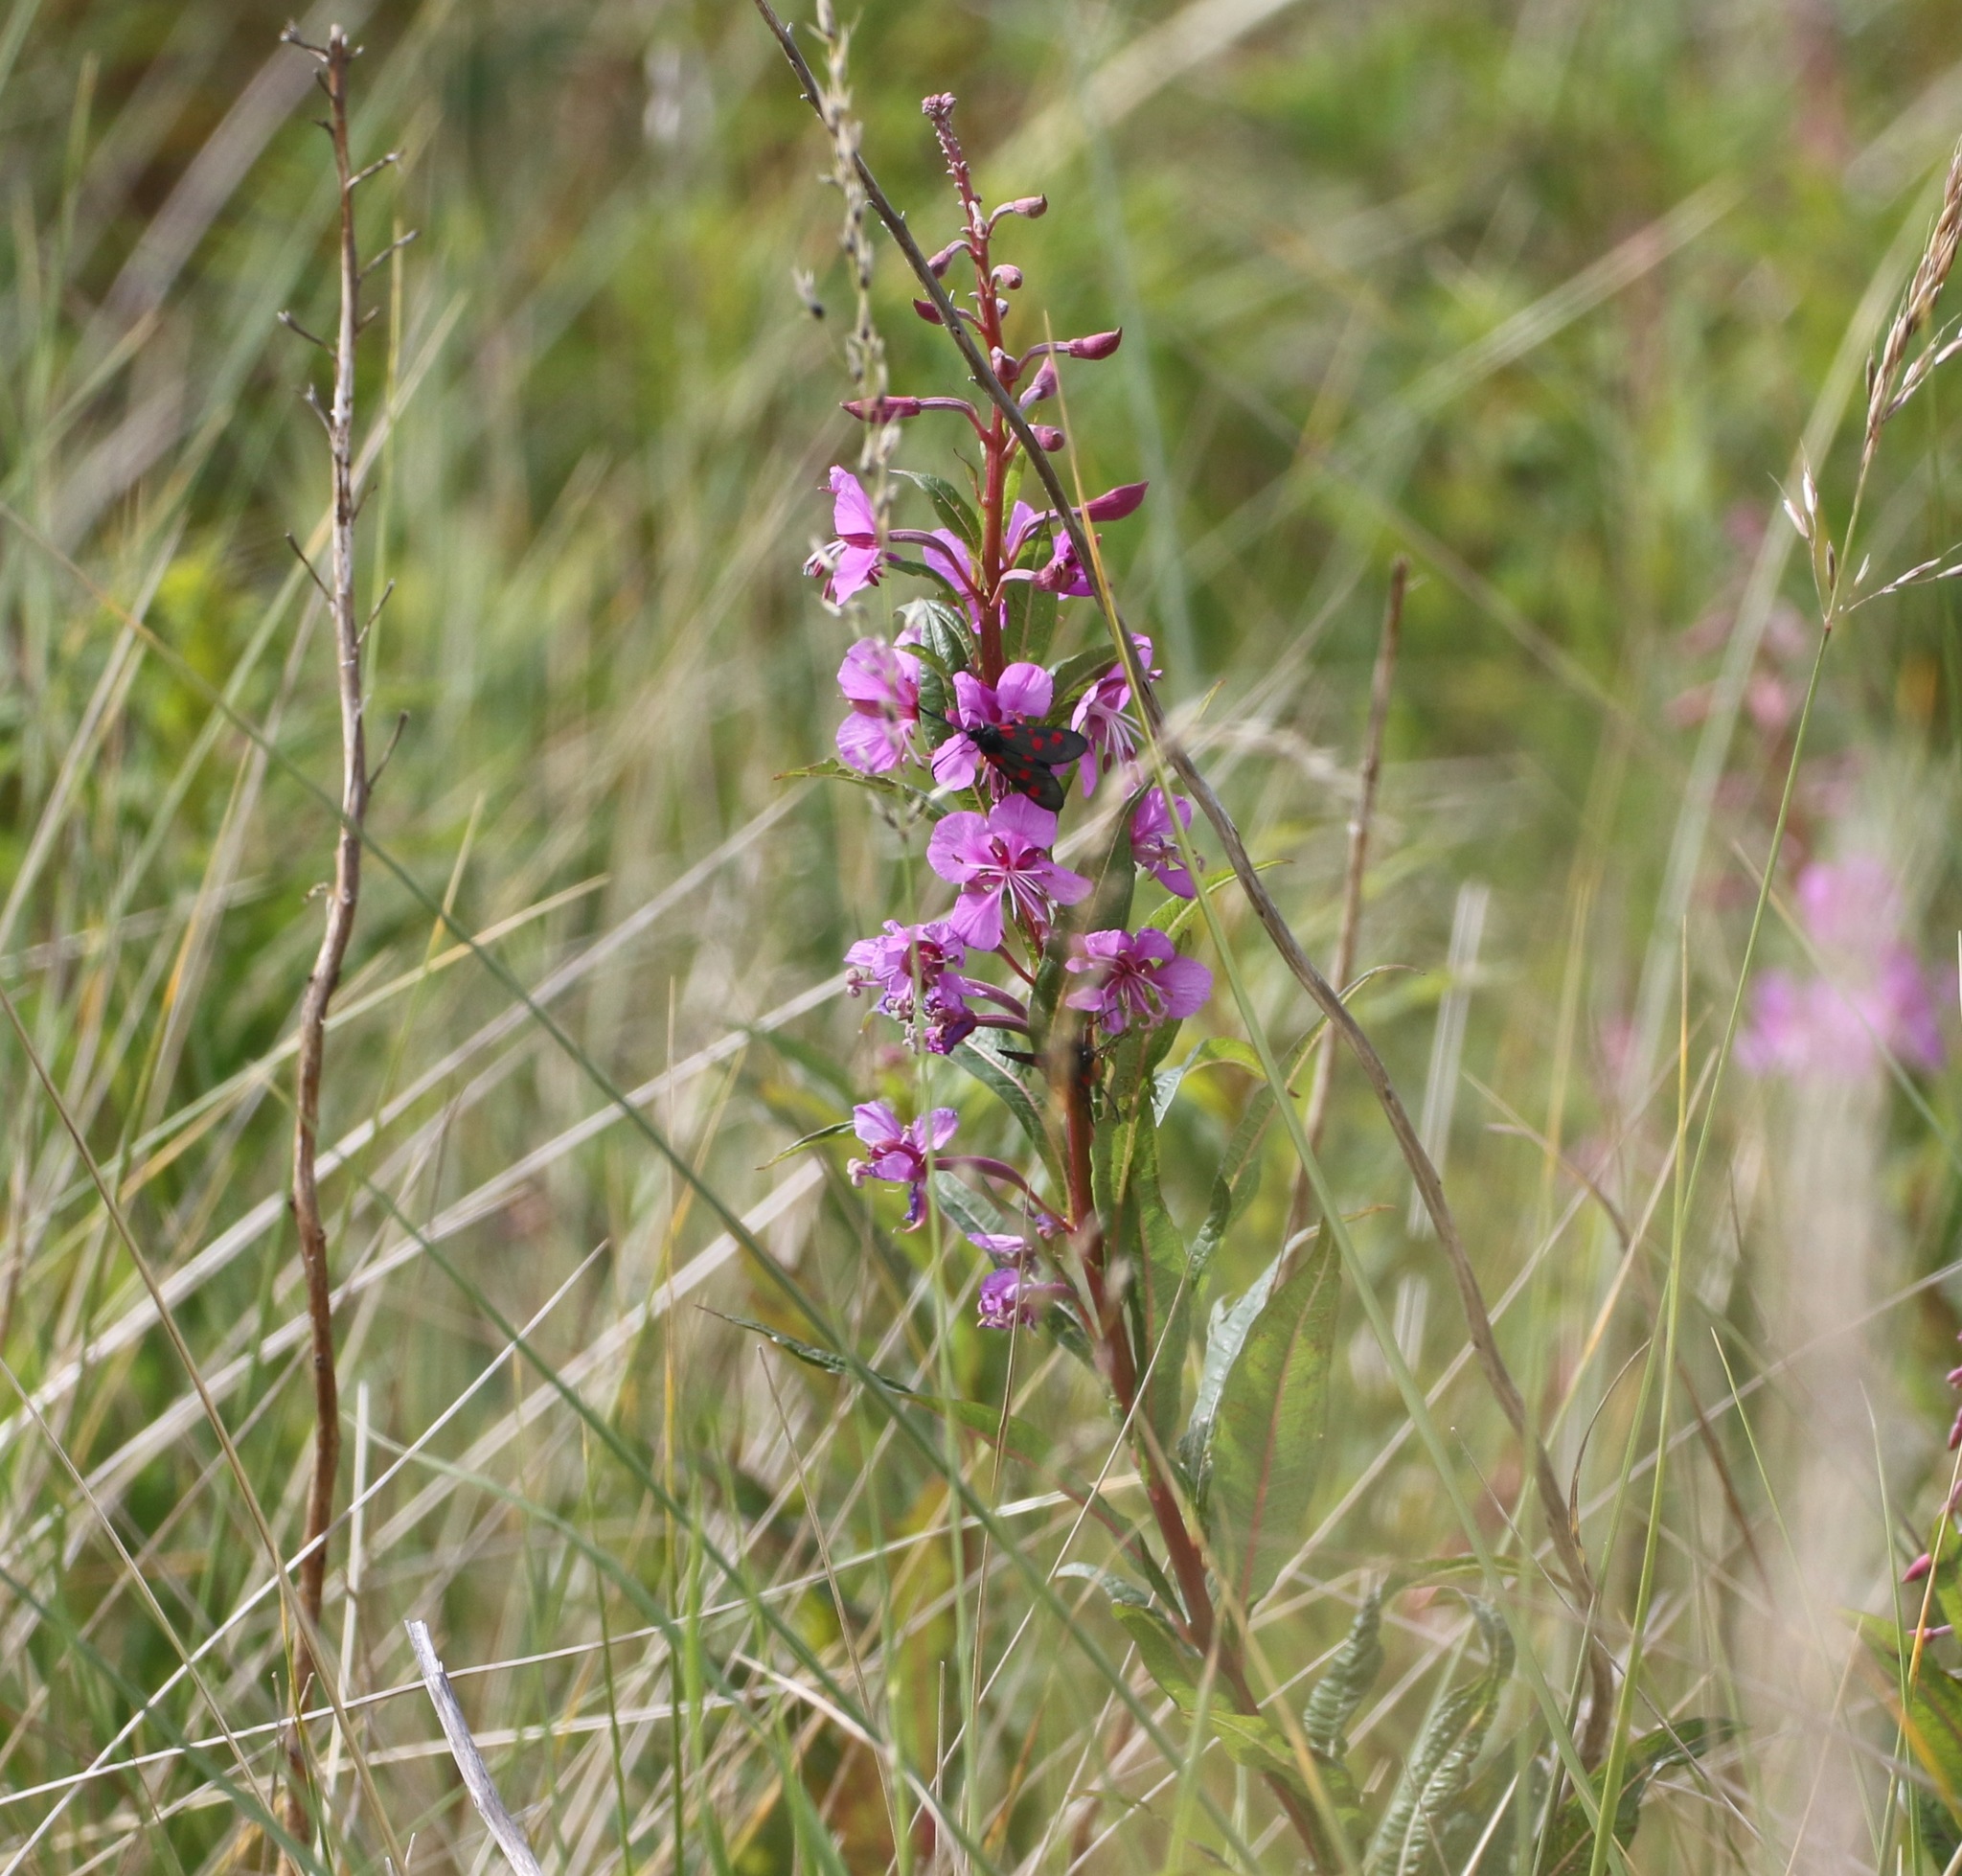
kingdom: Plantae
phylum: Tracheophyta
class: Magnoliopsida
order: Myrtales
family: Onagraceae
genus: Chamaenerion
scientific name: Chamaenerion angustifolium
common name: Fireweed
